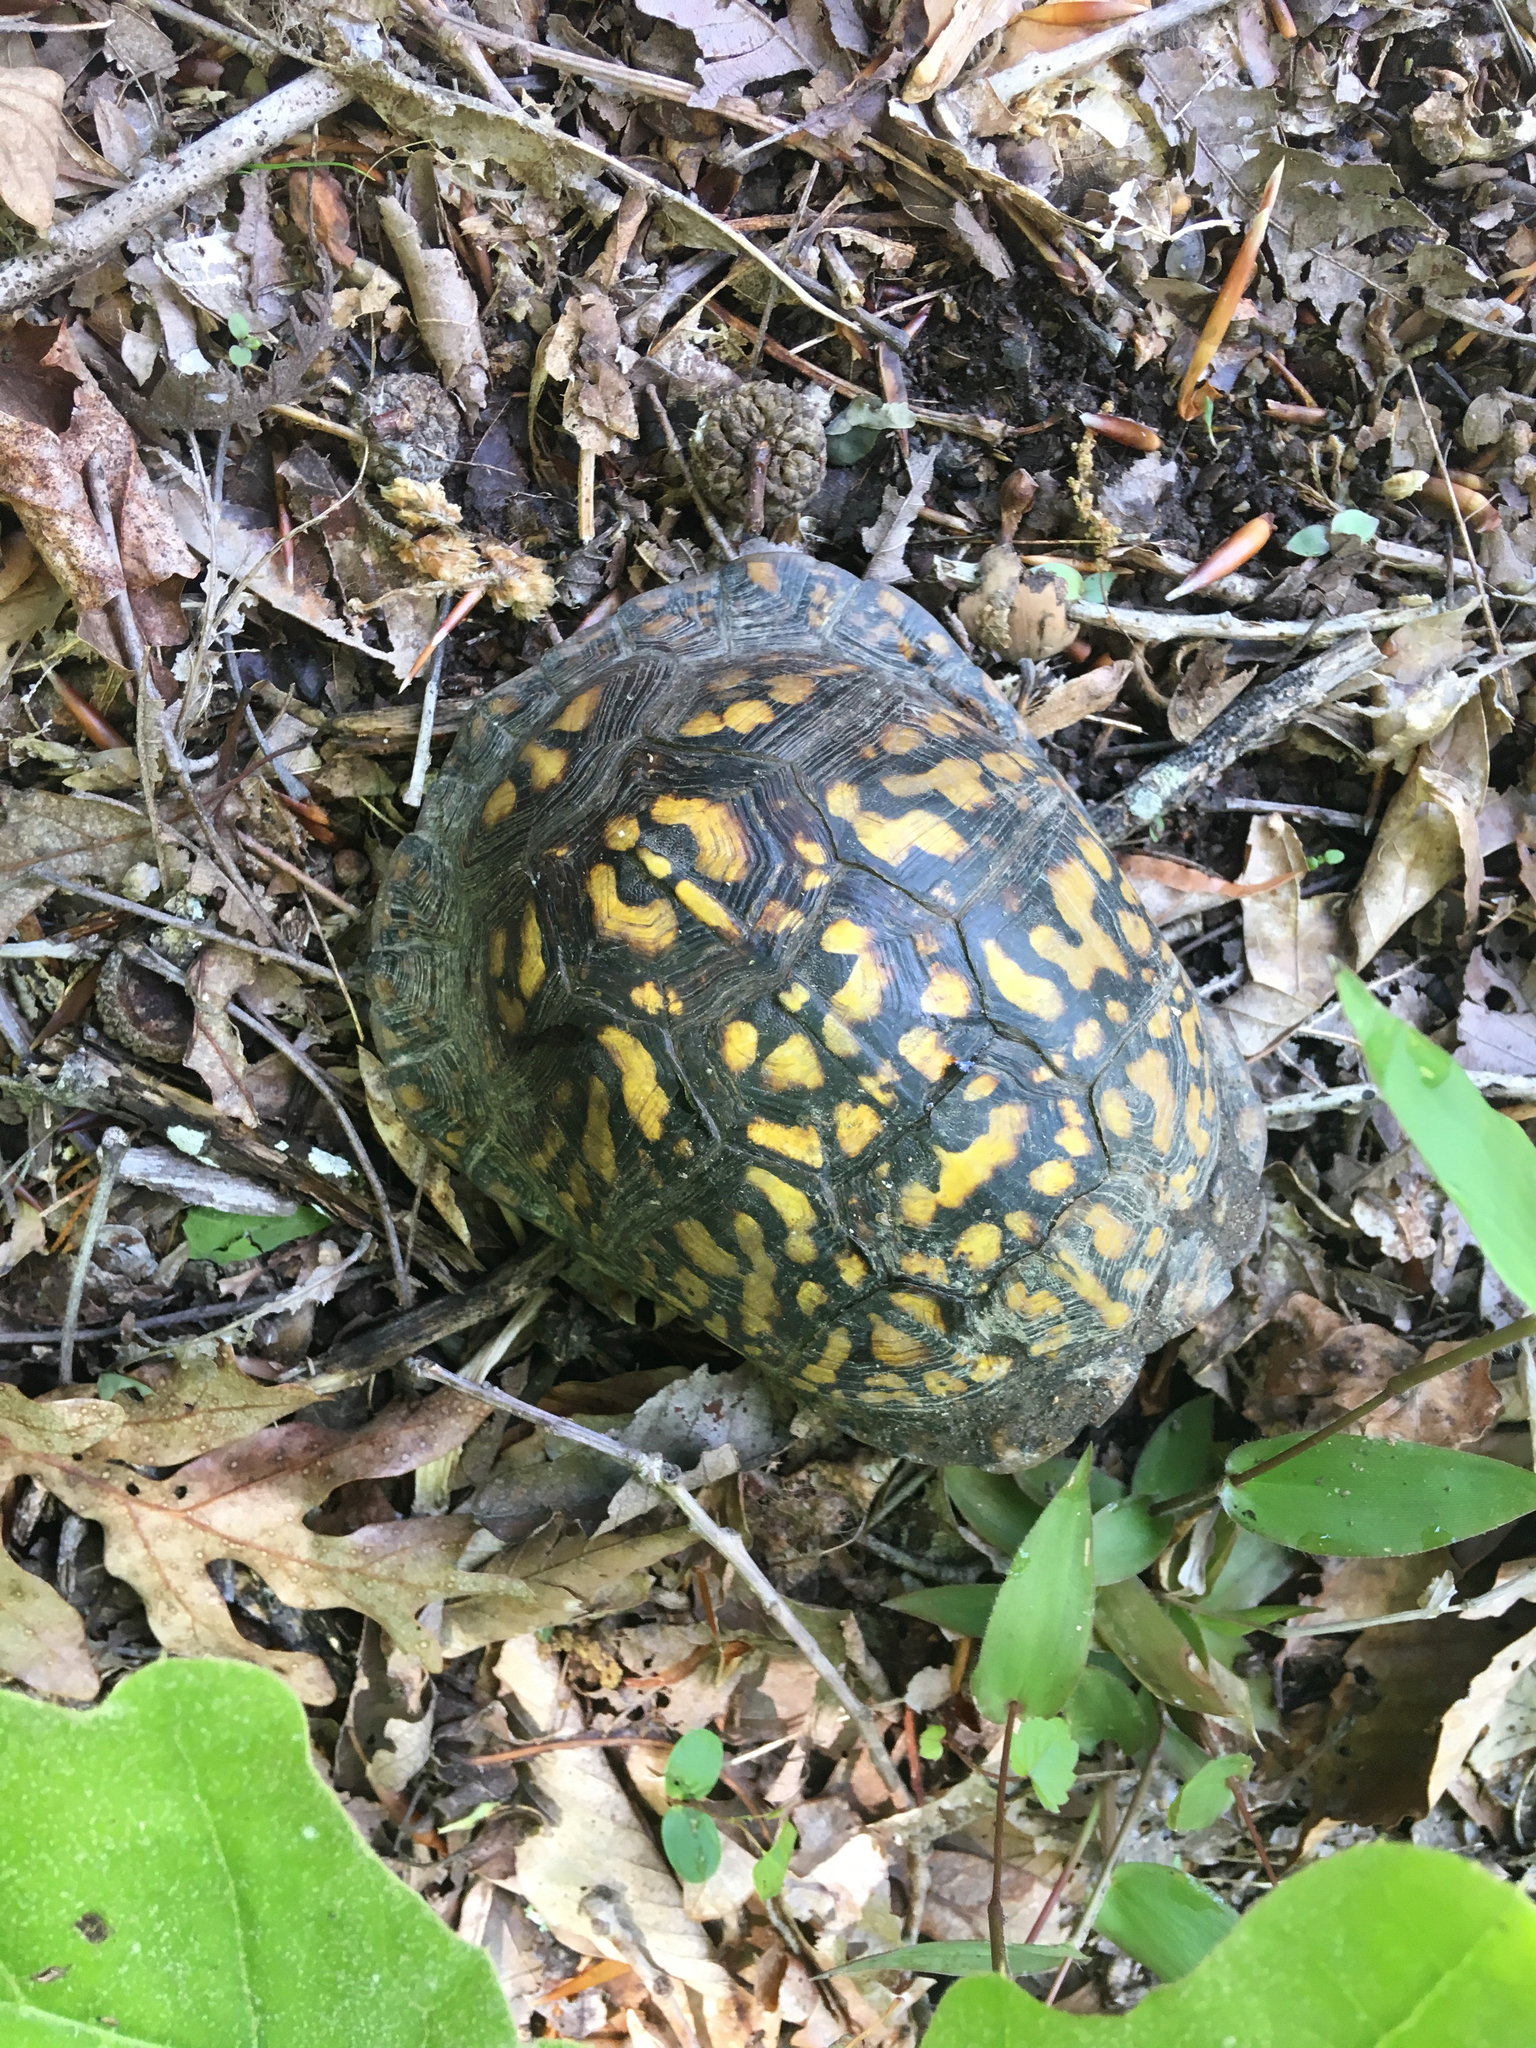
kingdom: Animalia
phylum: Chordata
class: Testudines
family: Emydidae
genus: Terrapene
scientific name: Terrapene carolina
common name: Common box turtle
